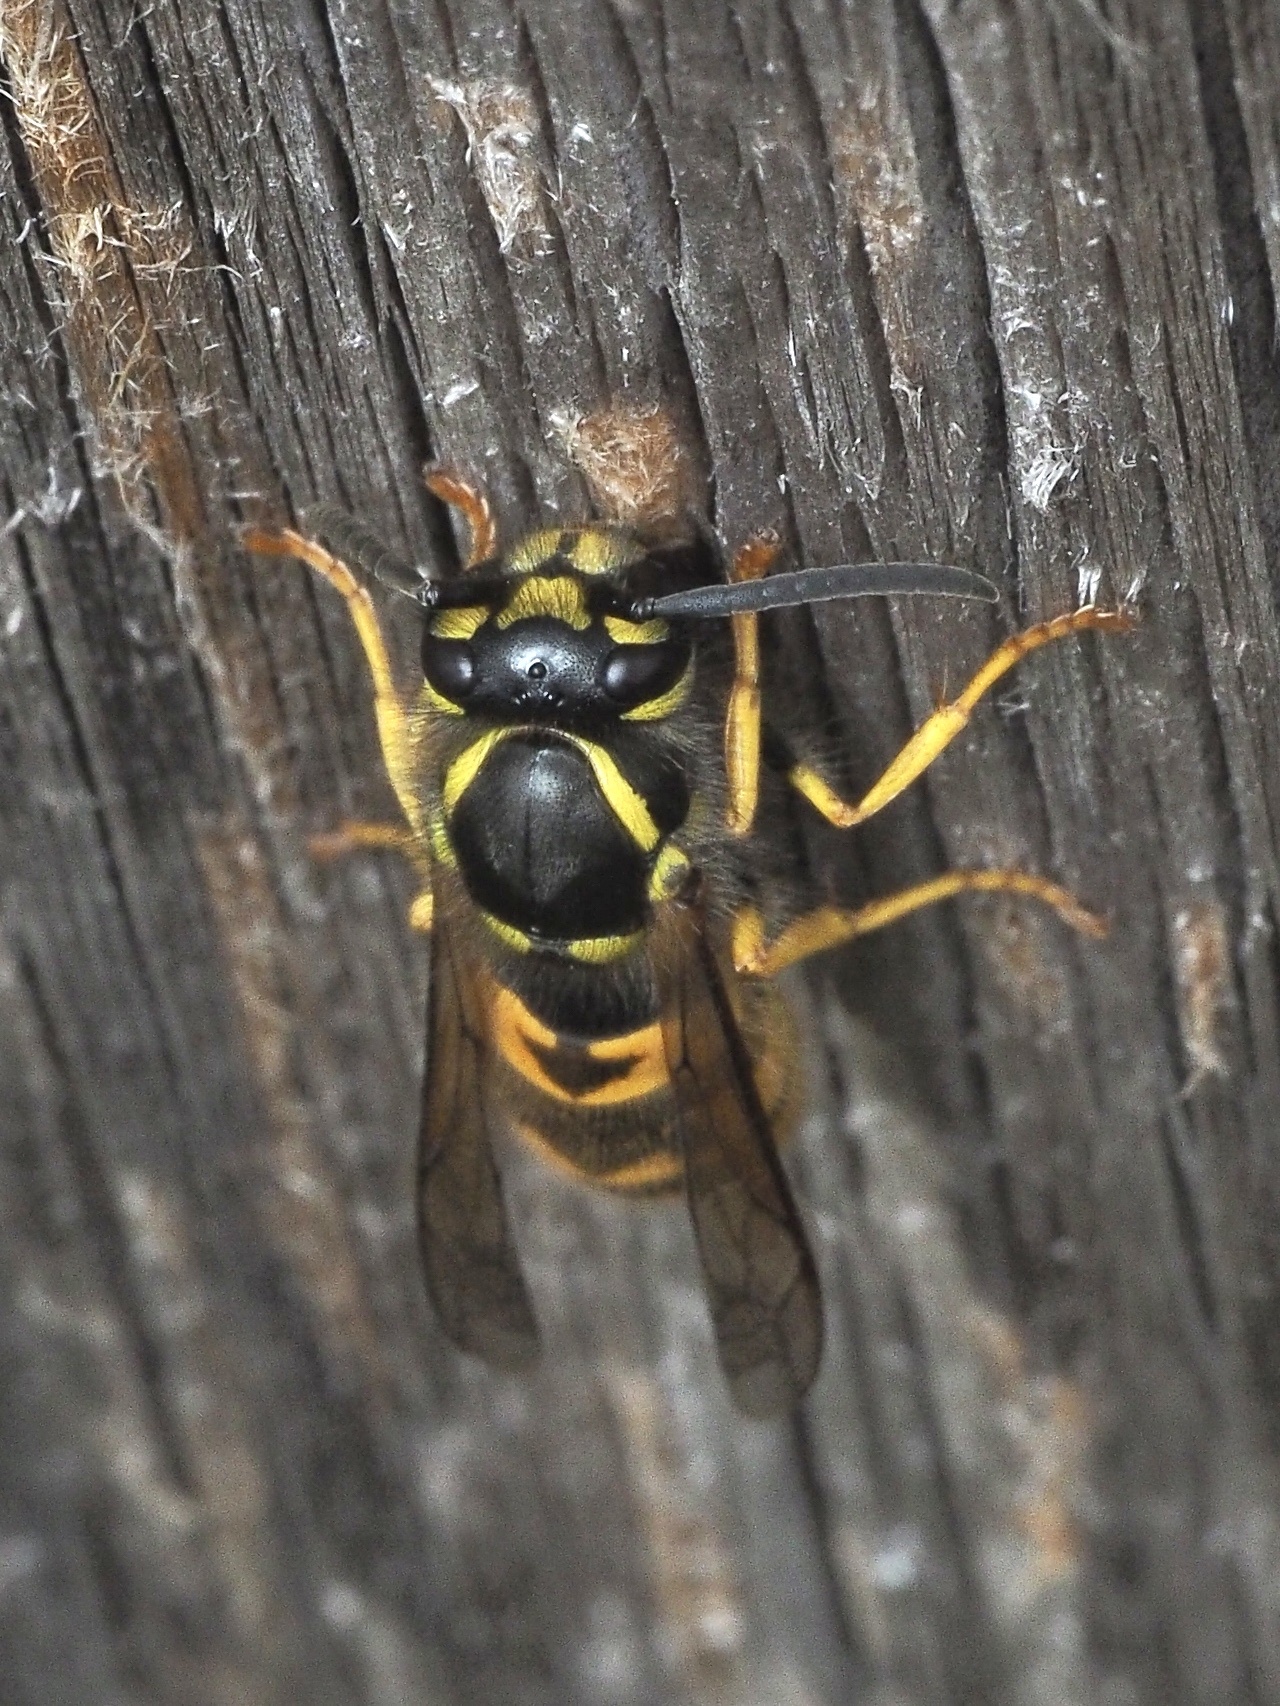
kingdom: Animalia
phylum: Arthropoda
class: Insecta
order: Hymenoptera
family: Vespidae
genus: Vespula
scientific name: Vespula germanica
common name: German wasp
